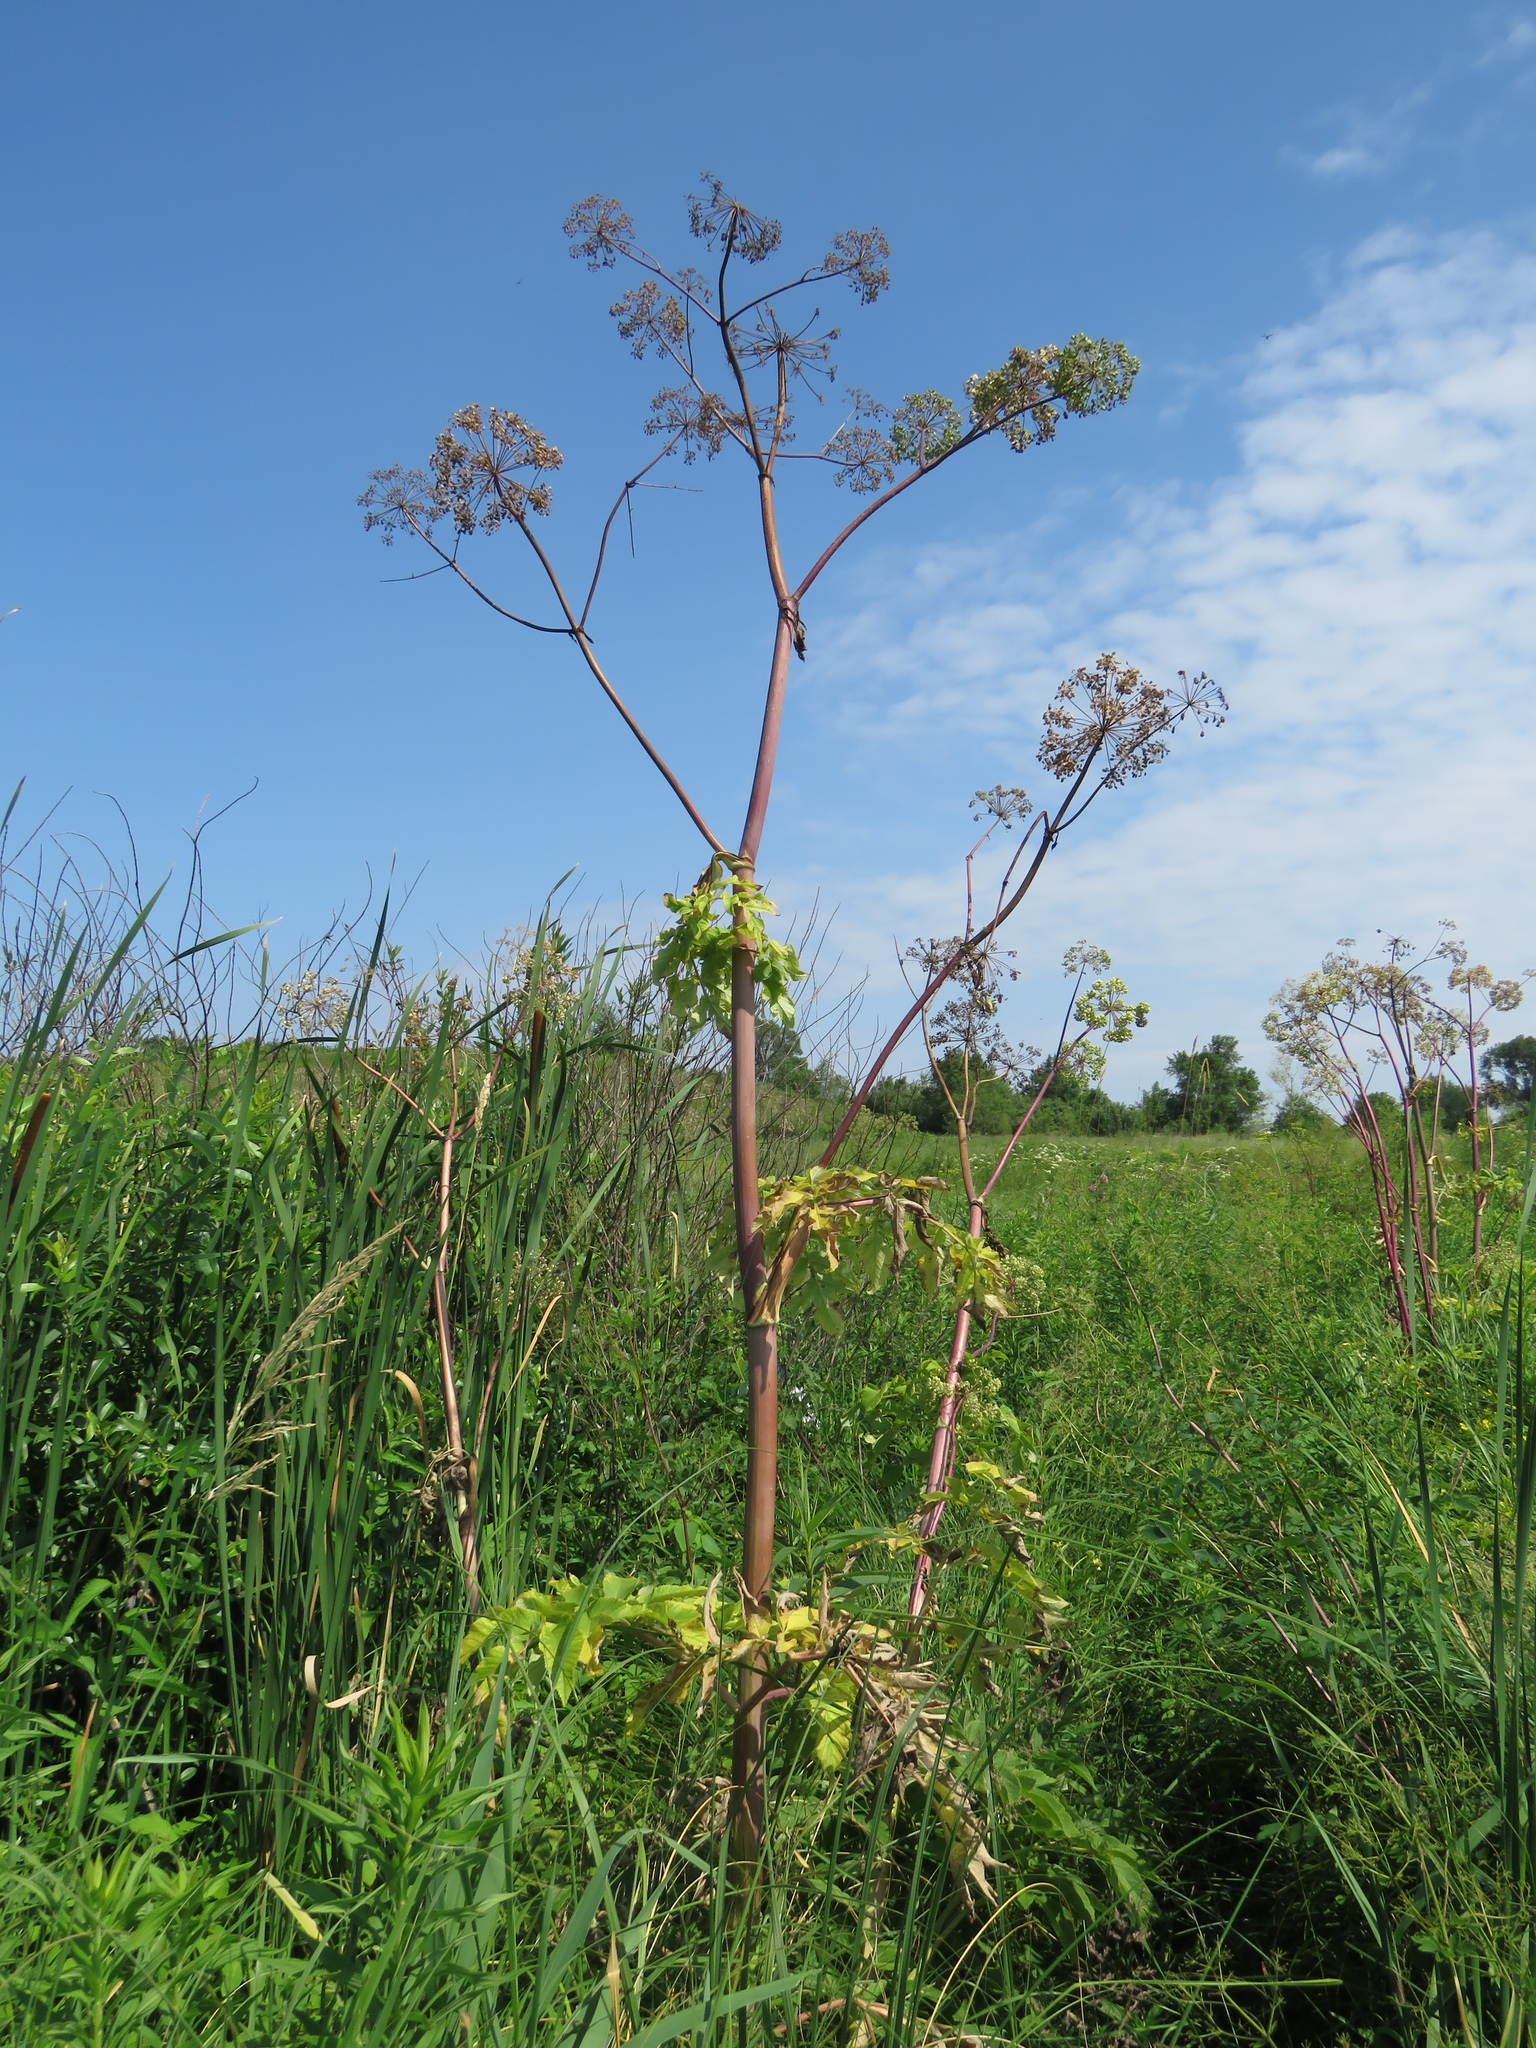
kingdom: Plantae
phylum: Tracheophyta
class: Magnoliopsida
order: Apiales
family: Apiaceae
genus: Angelica
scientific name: Angelica atropurpurea
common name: Great angelica
